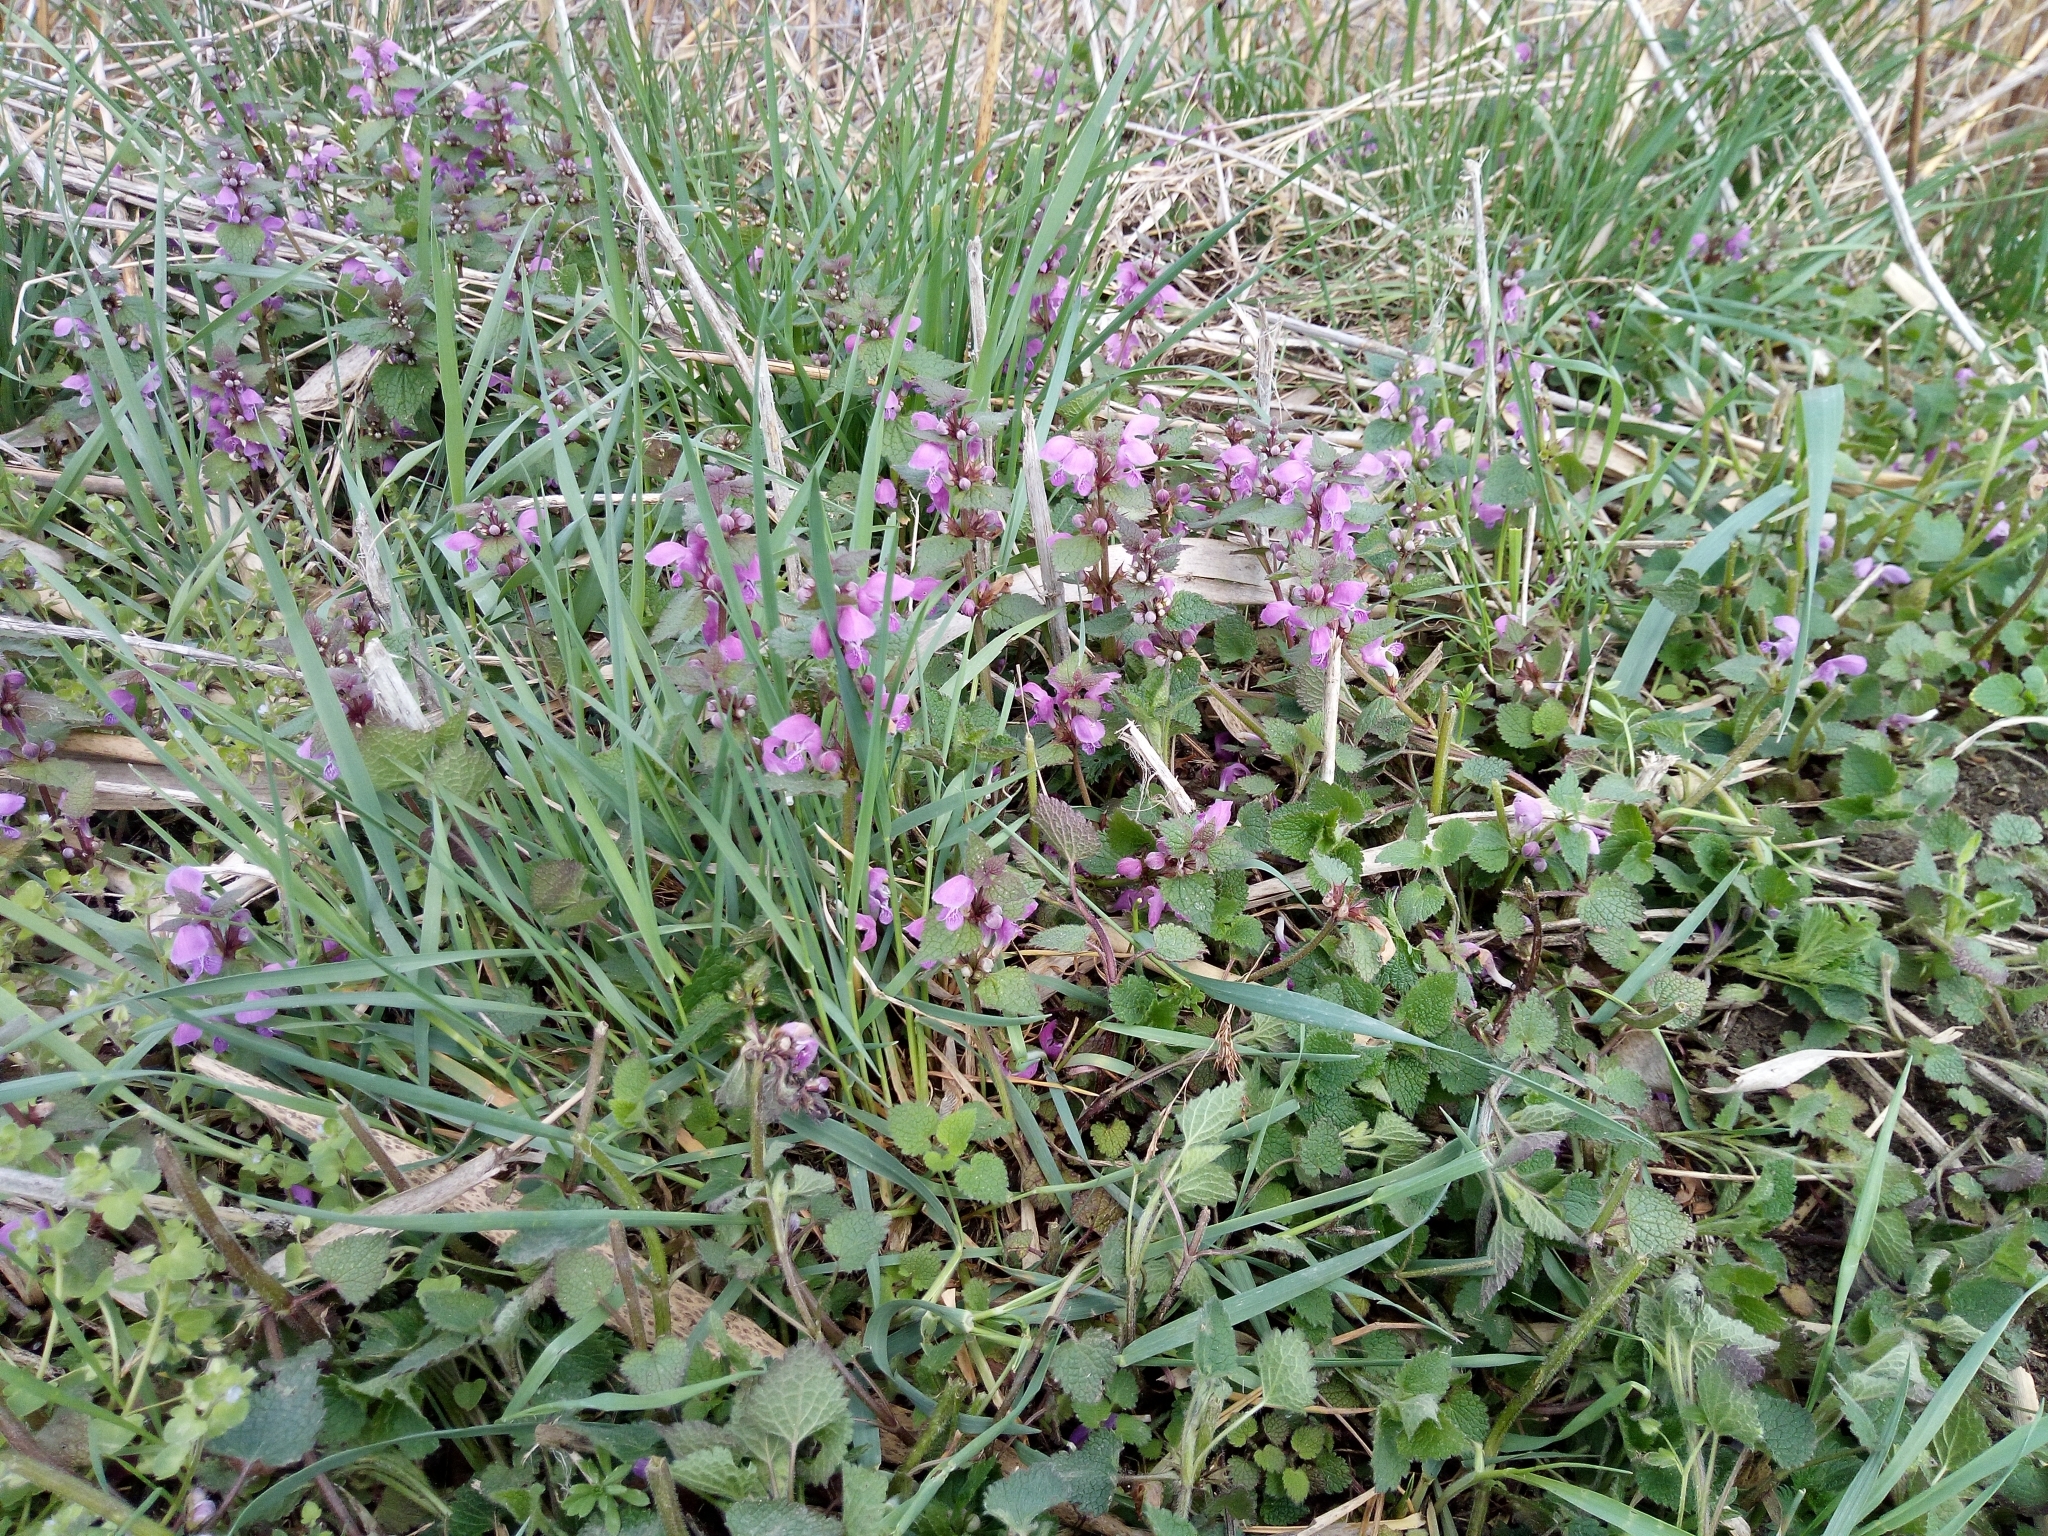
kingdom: Plantae
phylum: Tracheophyta
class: Magnoliopsida
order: Lamiales
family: Lamiaceae
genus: Lamium
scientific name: Lamium maculatum
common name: Spotted dead-nettle
